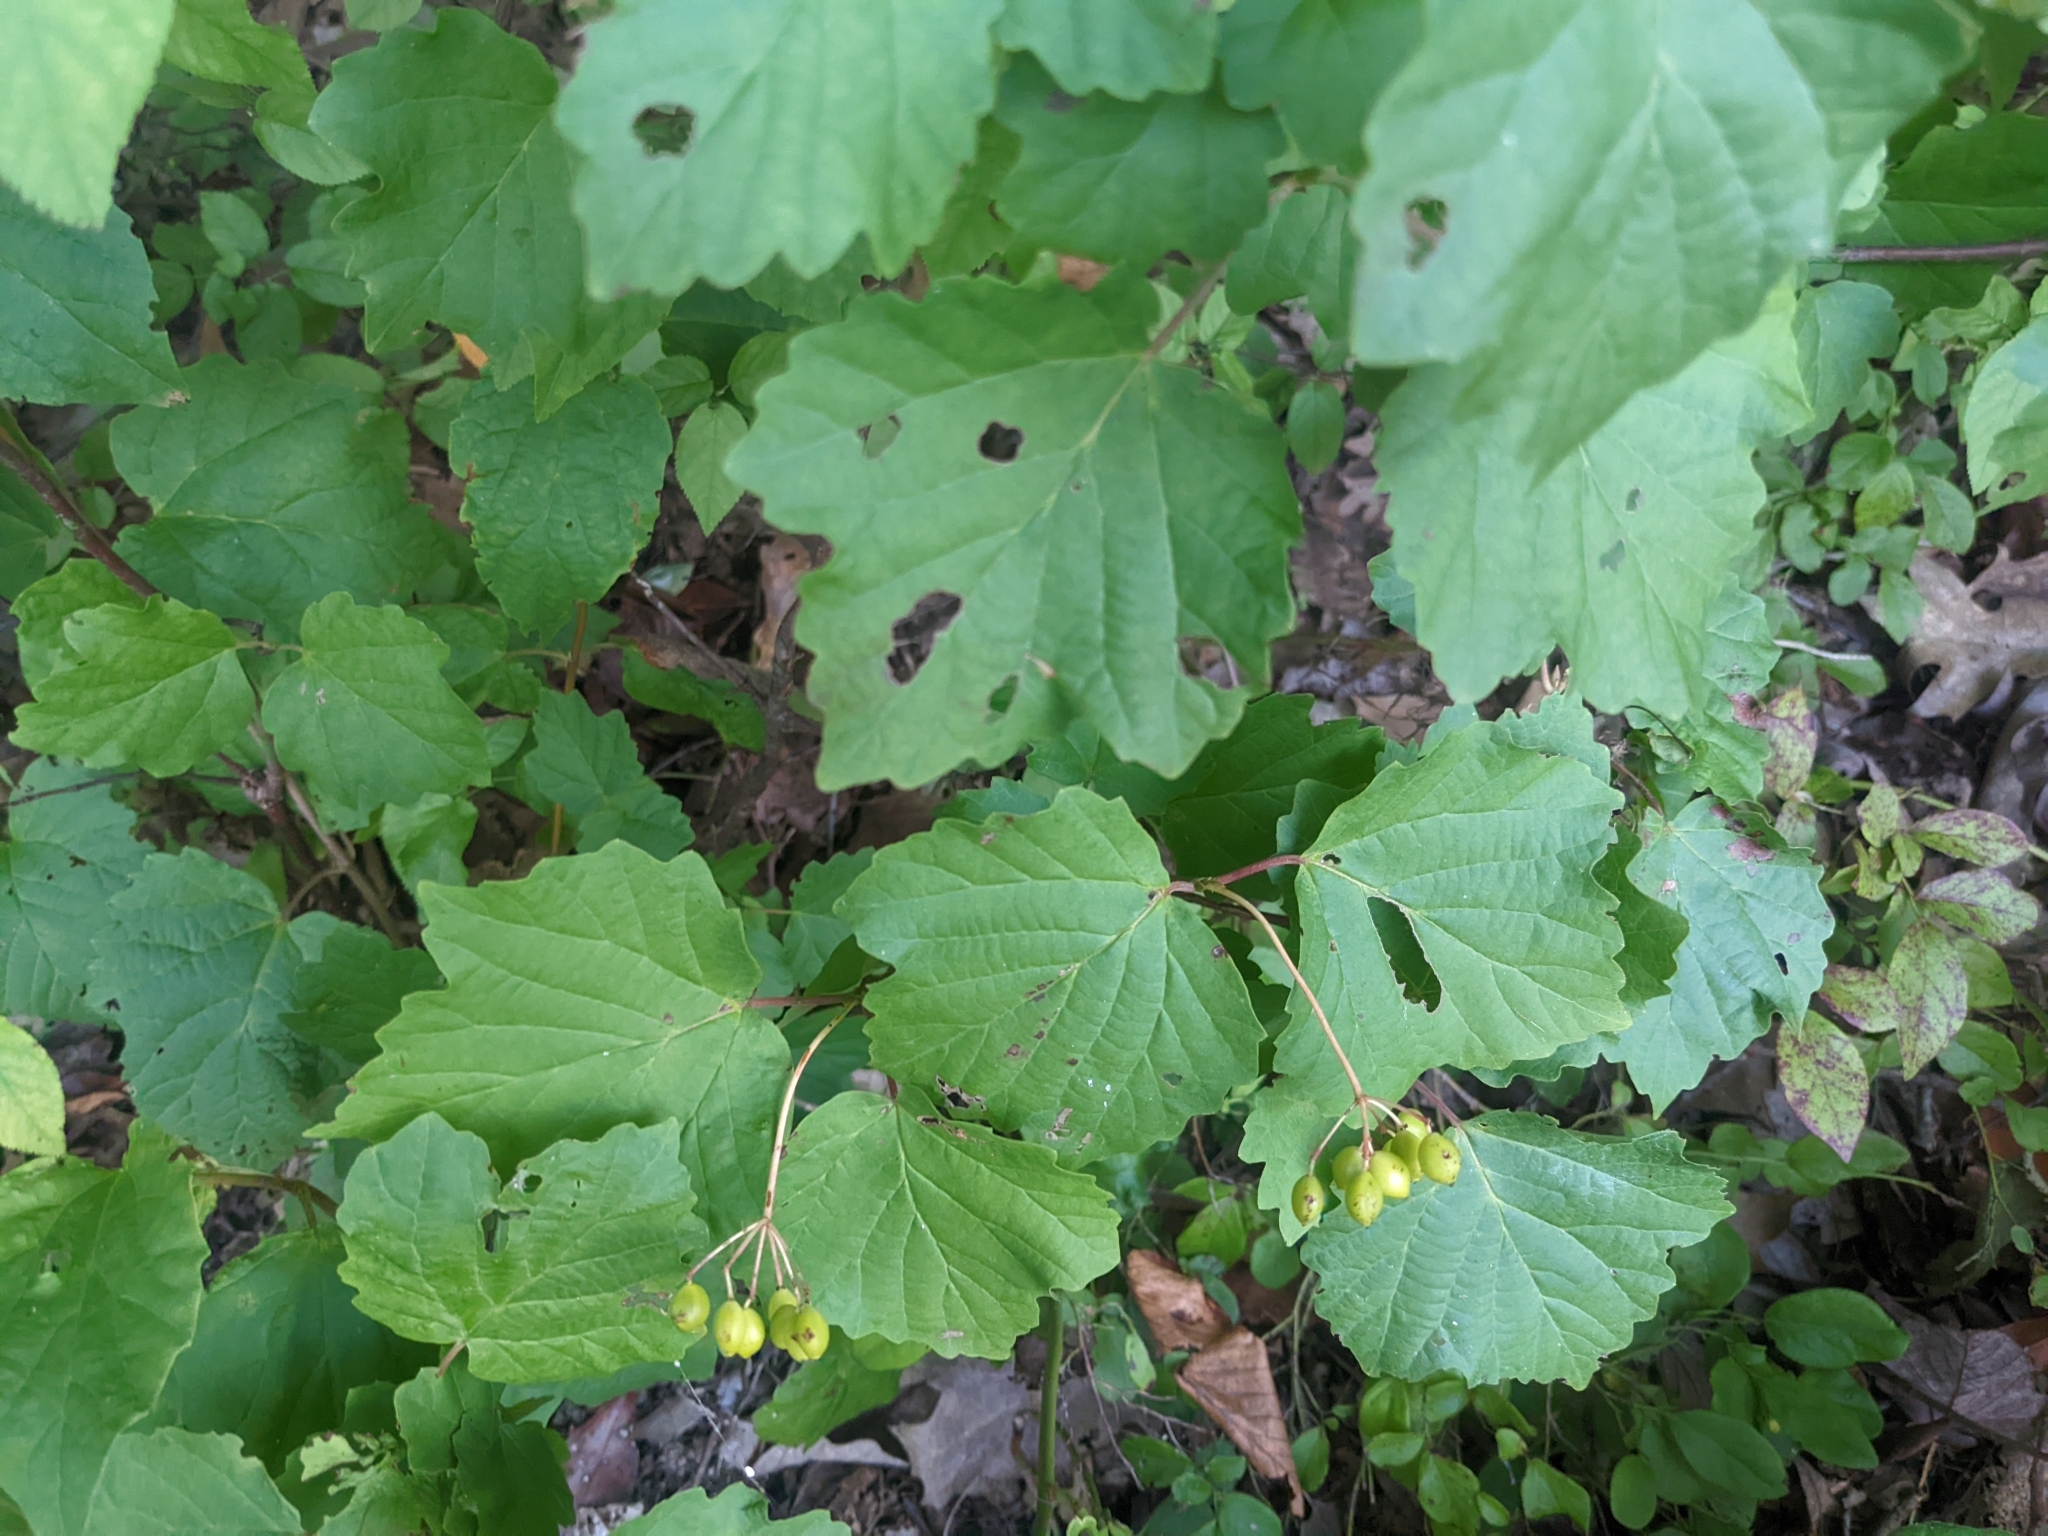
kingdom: Plantae
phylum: Tracheophyta
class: Magnoliopsida
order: Dipsacales
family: Viburnaceae
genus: Viburnum
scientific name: Viburnum acerifolium
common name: Dockmackie
